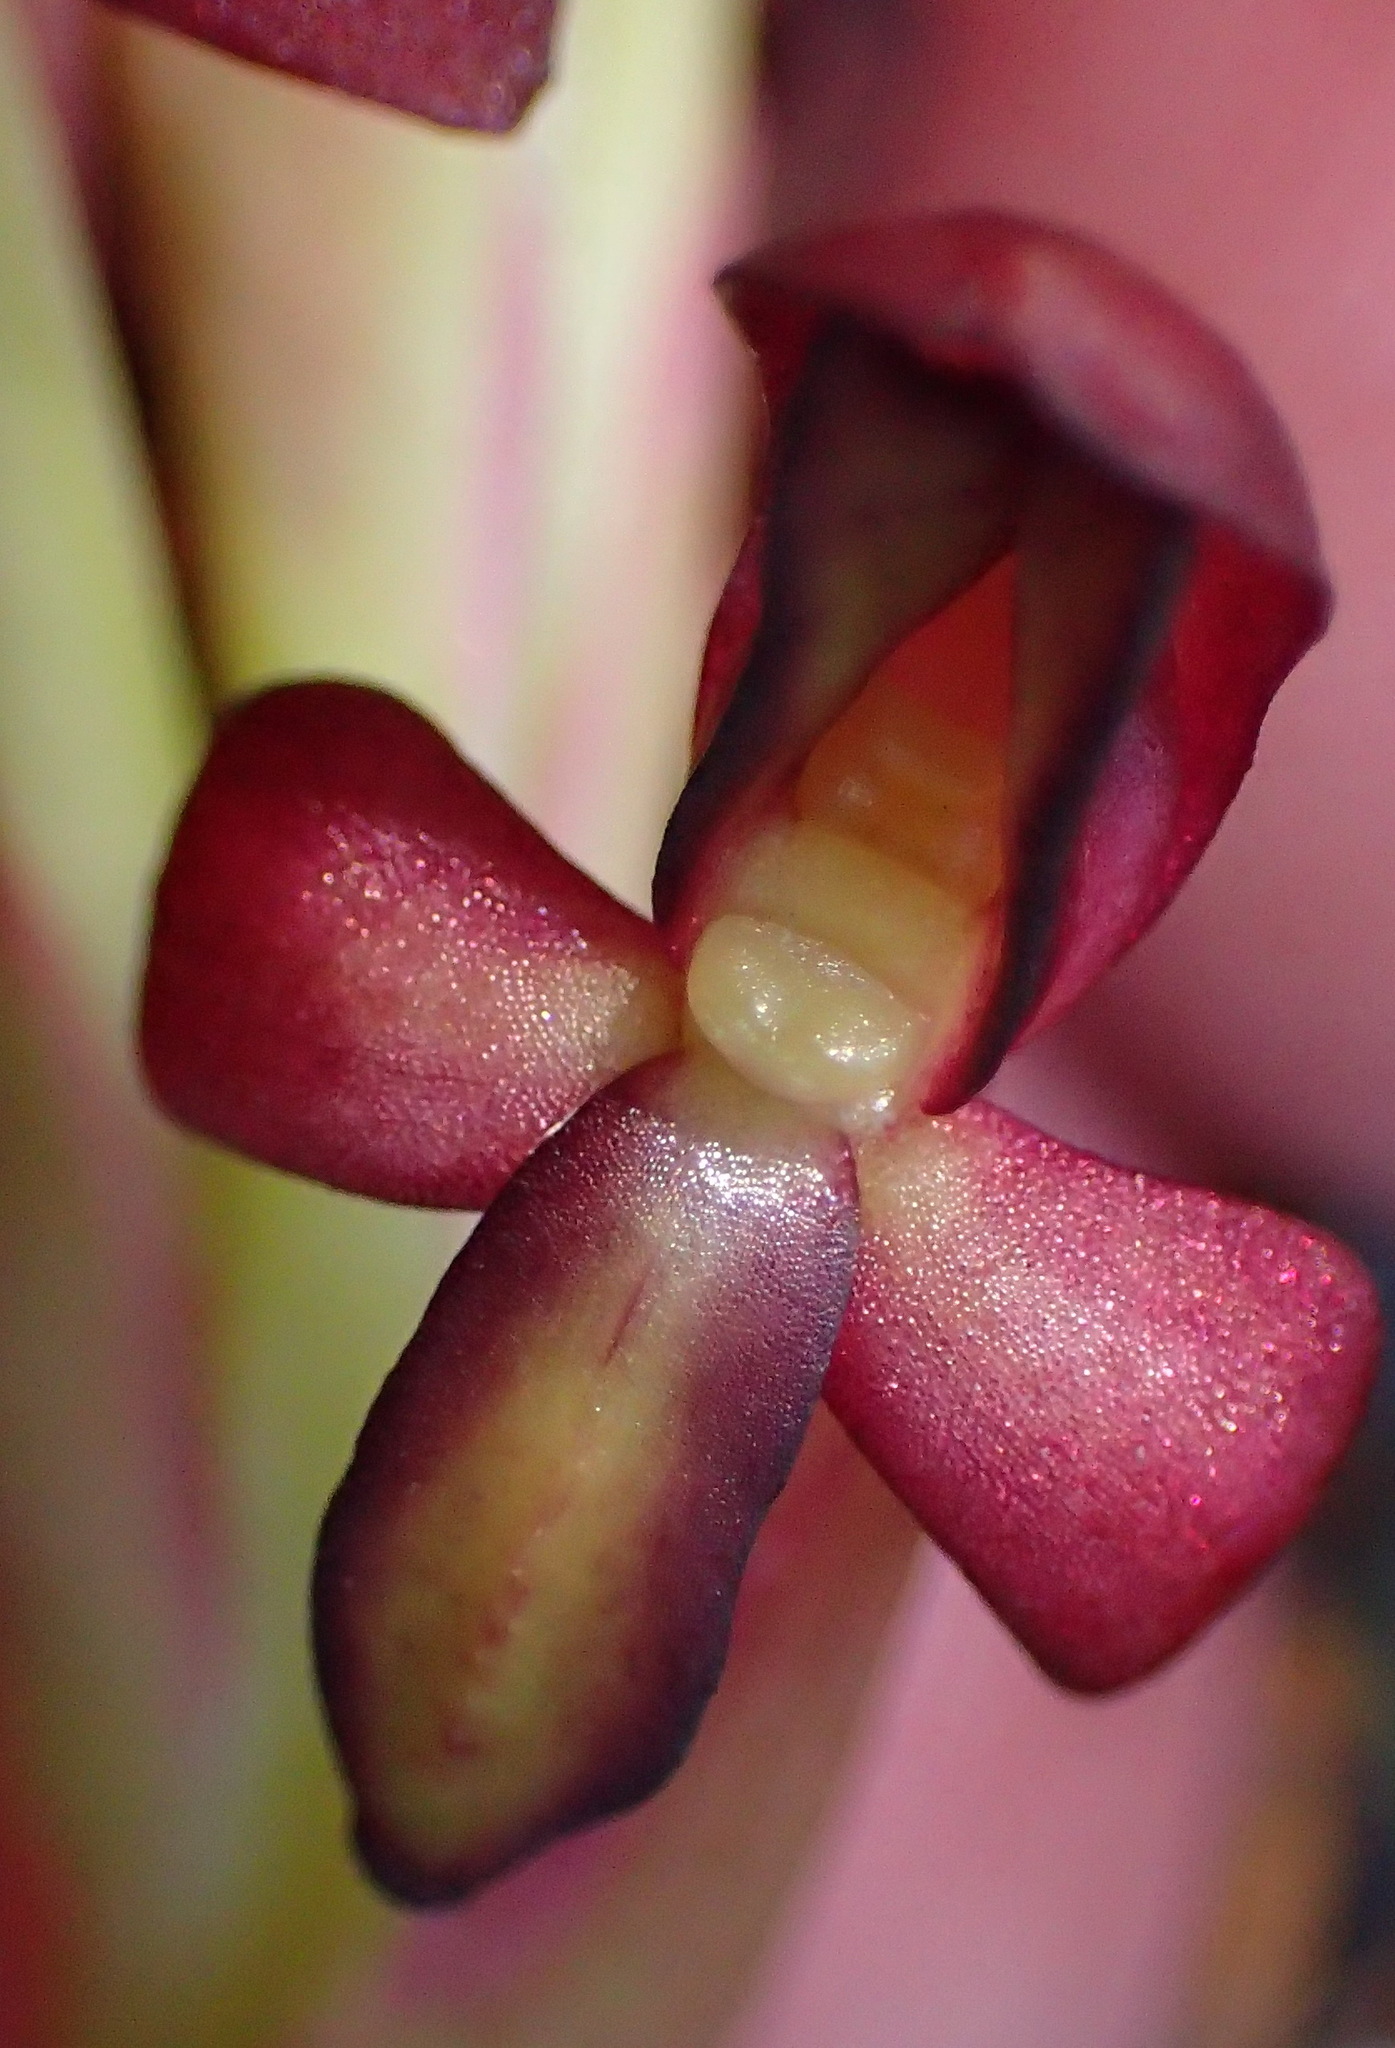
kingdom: Plantae
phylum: Tracheophyta
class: Liliopsida
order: Asparagales
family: Orchidaceae
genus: Disa
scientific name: Disa bolusiana
